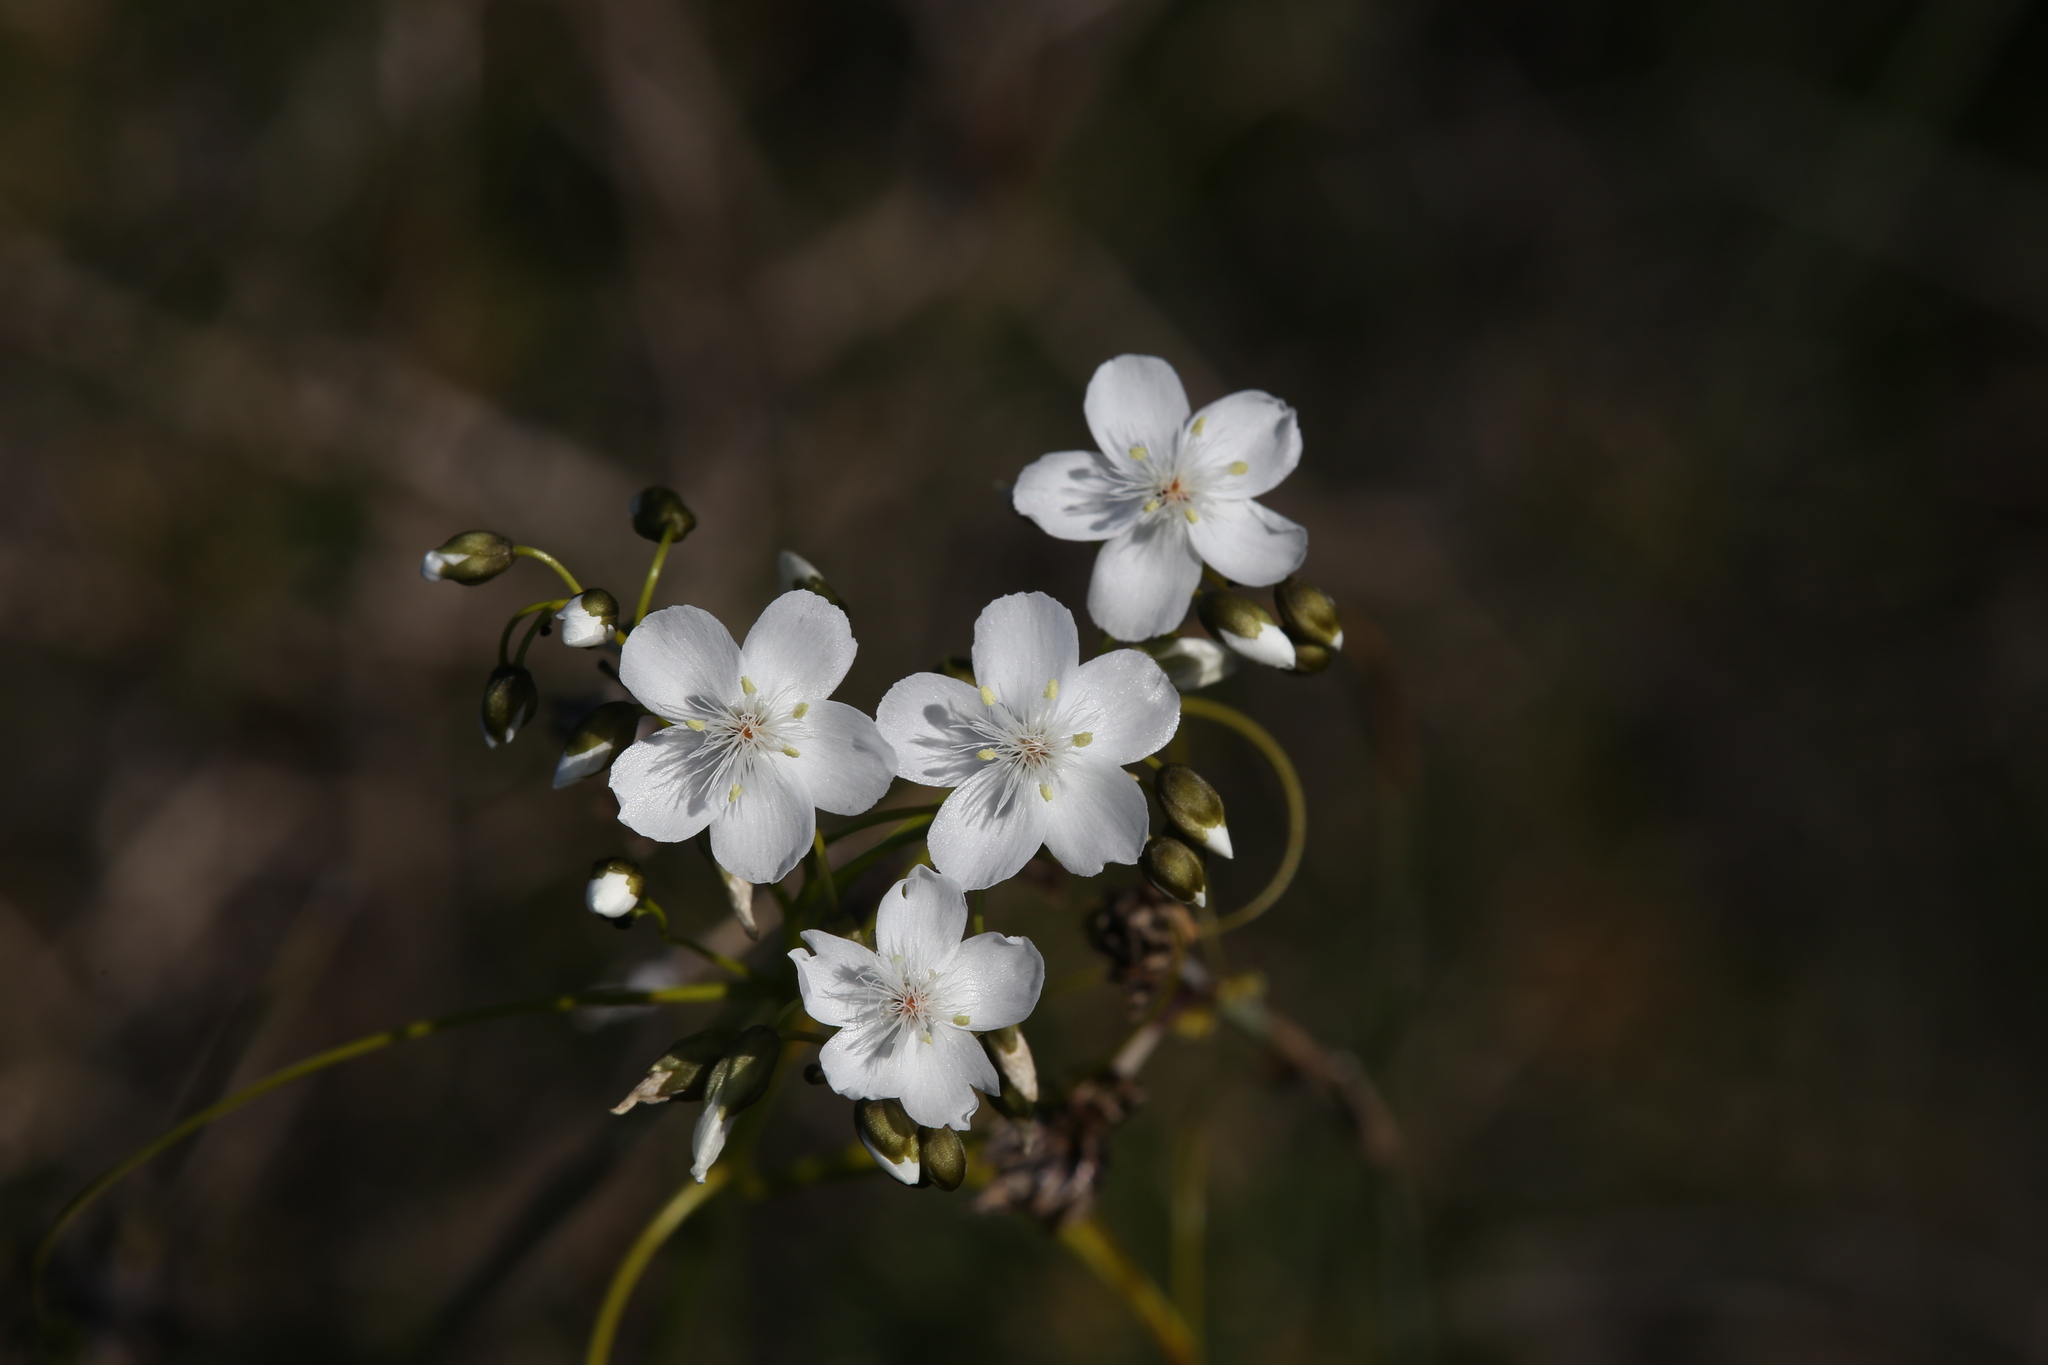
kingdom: Plantae
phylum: Tracheophyta
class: Magnoliopsida
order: Caryophyllales
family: Droseraceae
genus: Drosera
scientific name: Drosera pallida
